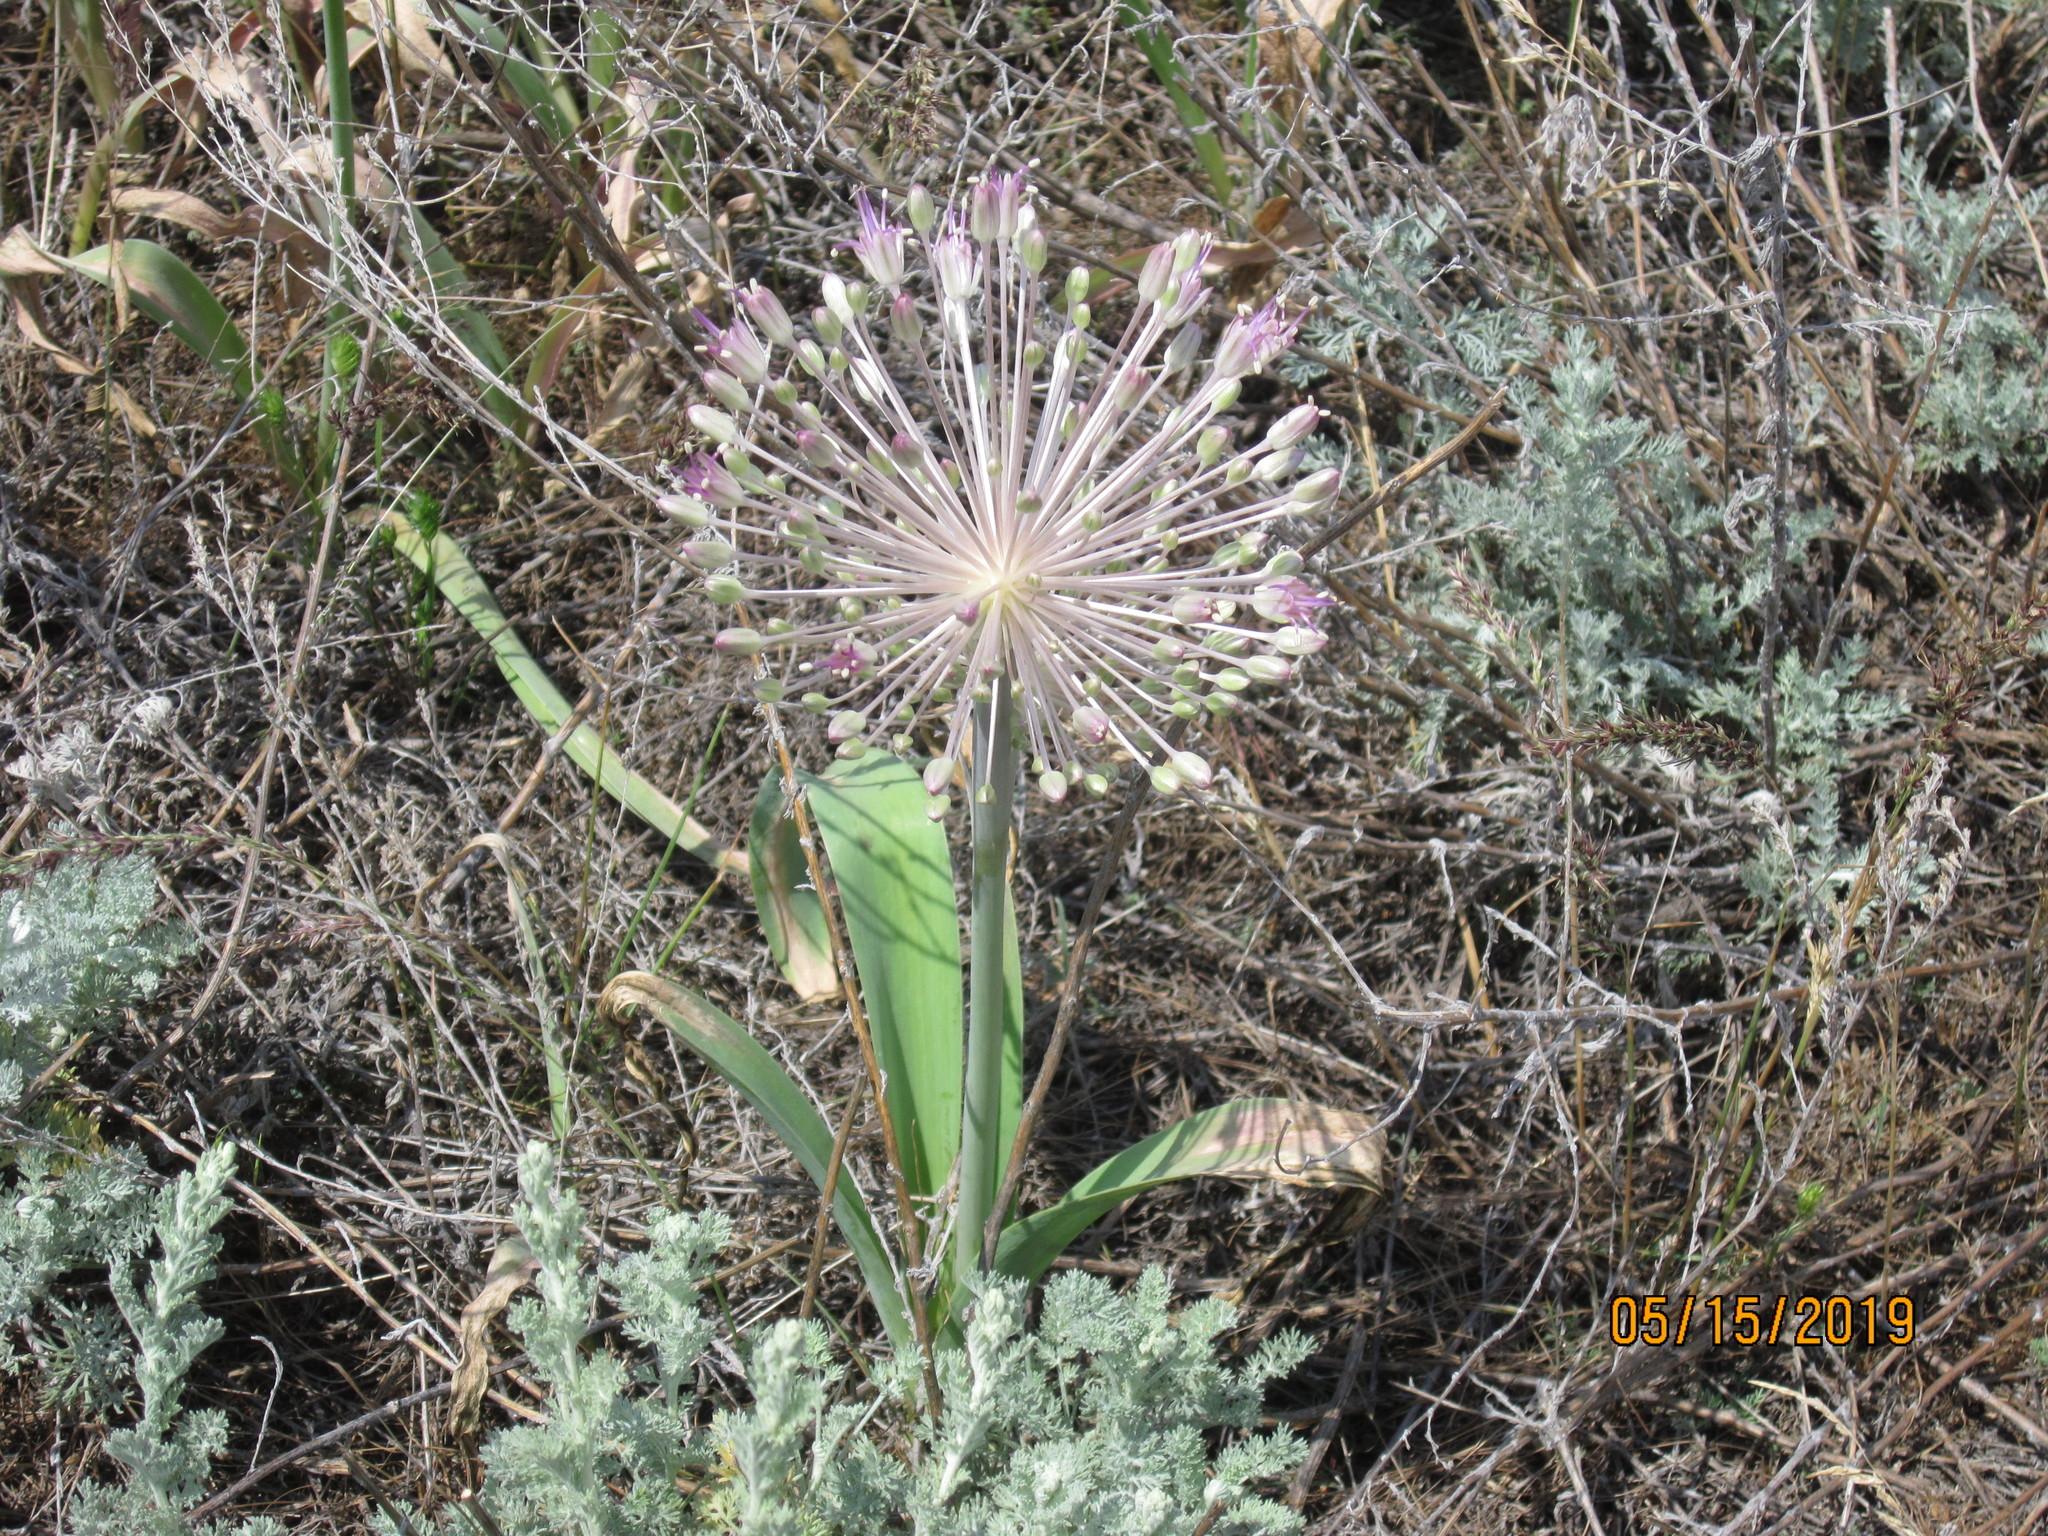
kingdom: Plantae
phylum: Tracheophyta
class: Liliopsida
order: Asparagales
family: Amaryllidaceae
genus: Allium
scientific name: Allium caspium
